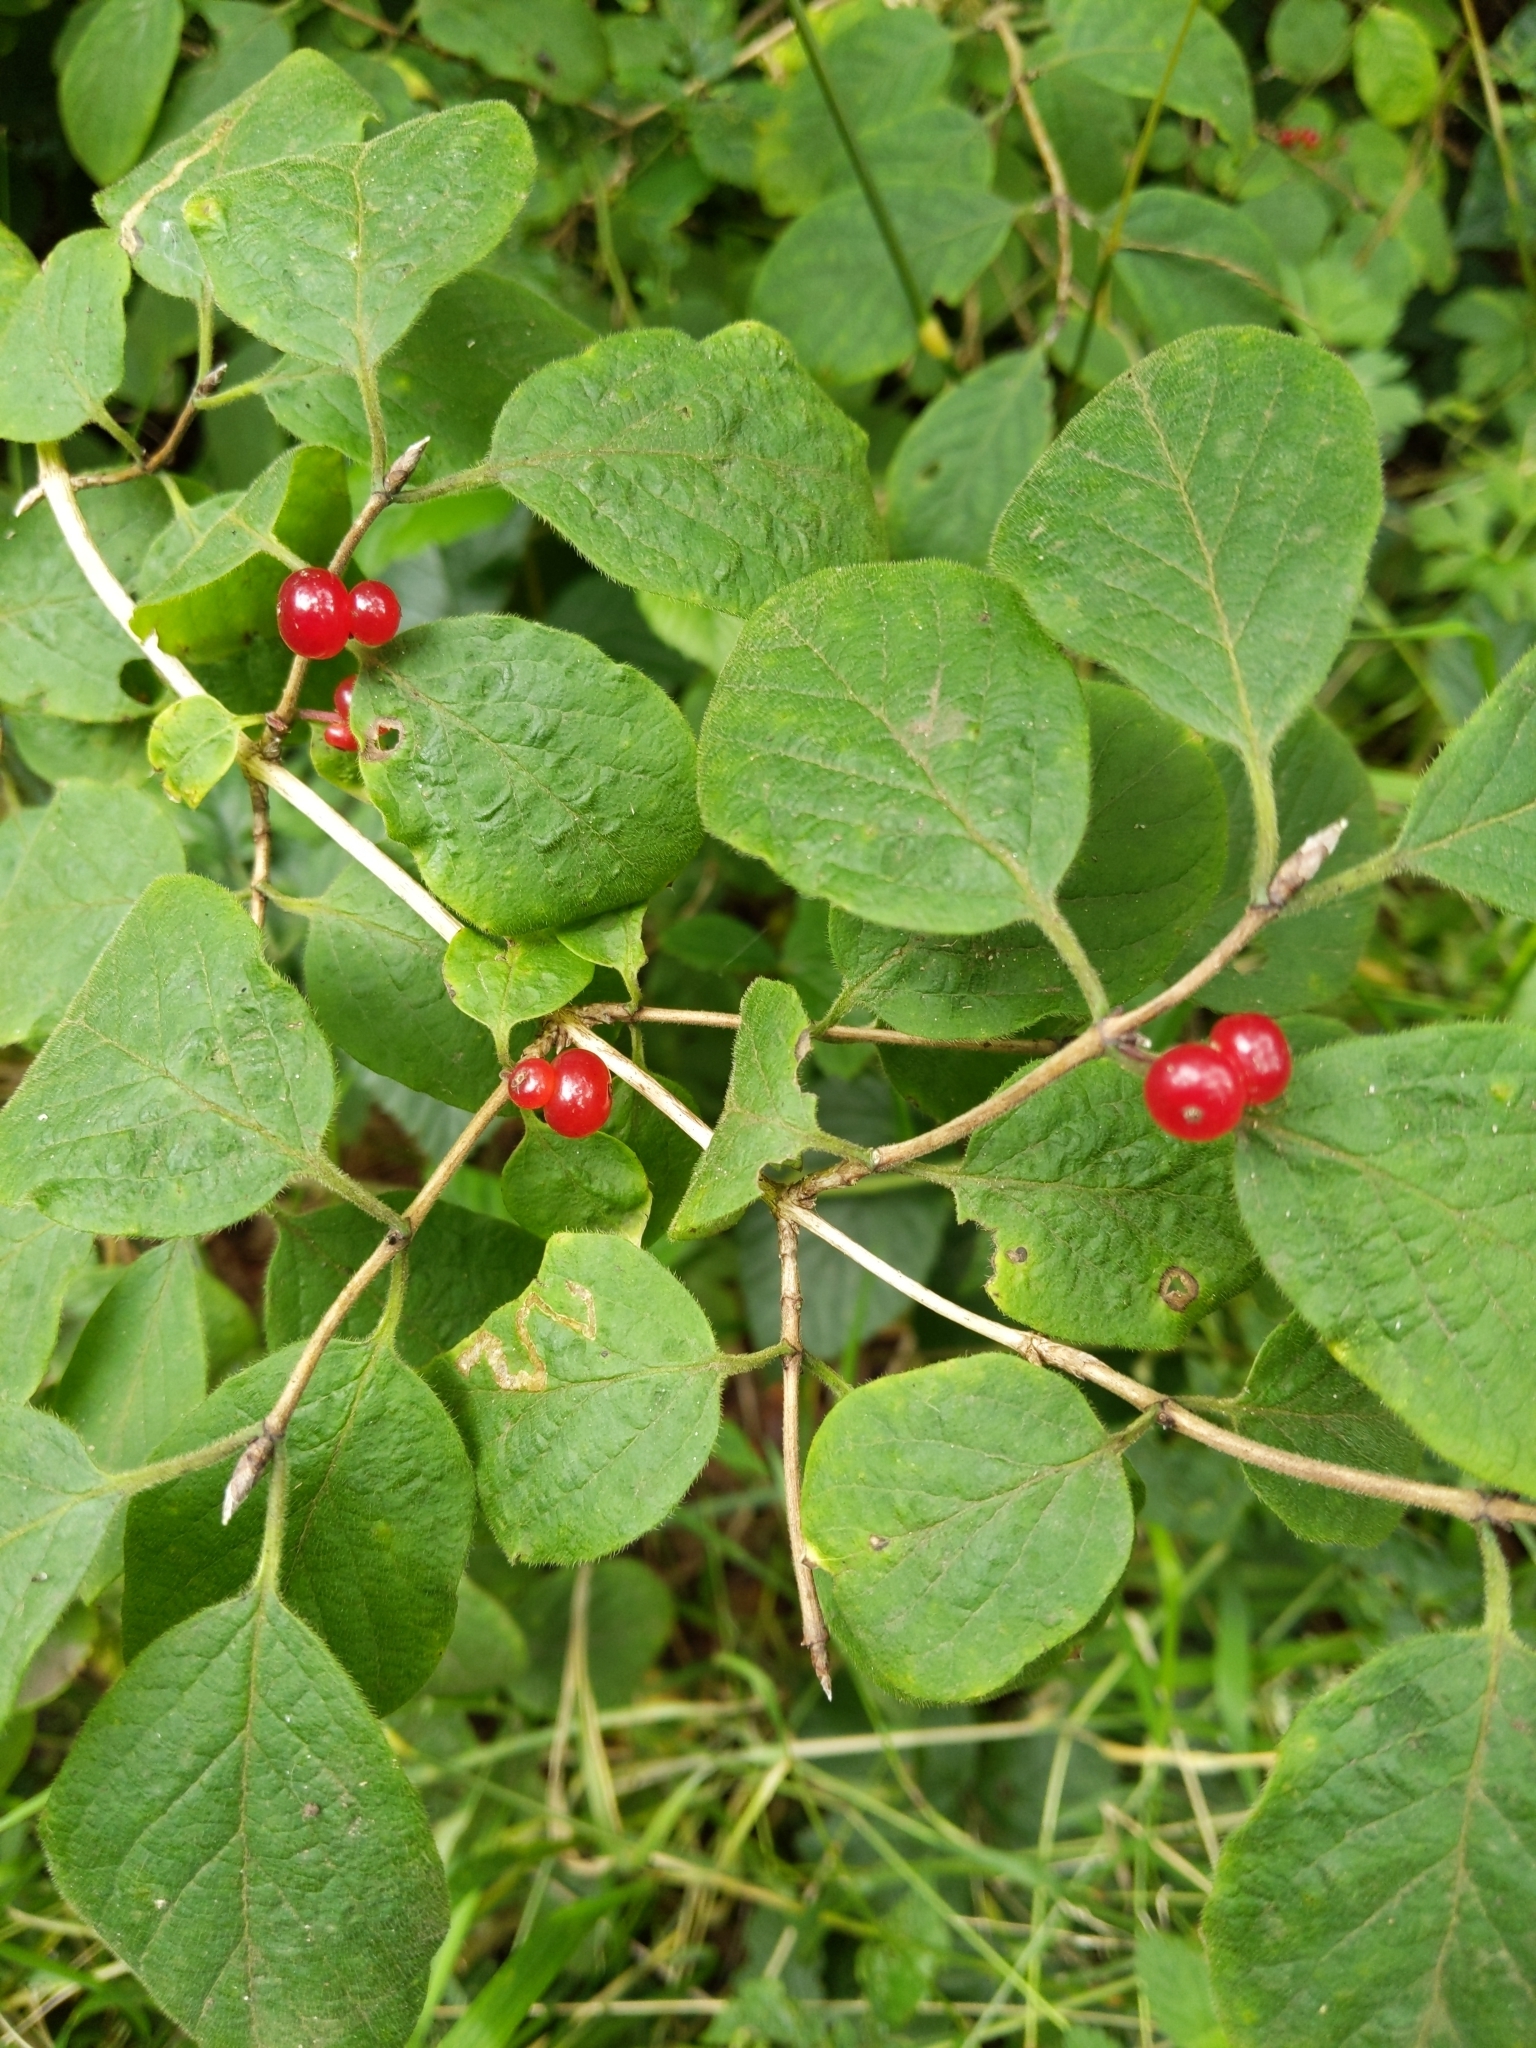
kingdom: Plantae
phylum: Tracheophyta
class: Magnoliopsida
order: Dipsacales
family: Caprifoliaceae
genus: Lonicera
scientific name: Lonicera xylosteum
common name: Fly honeysuckle
